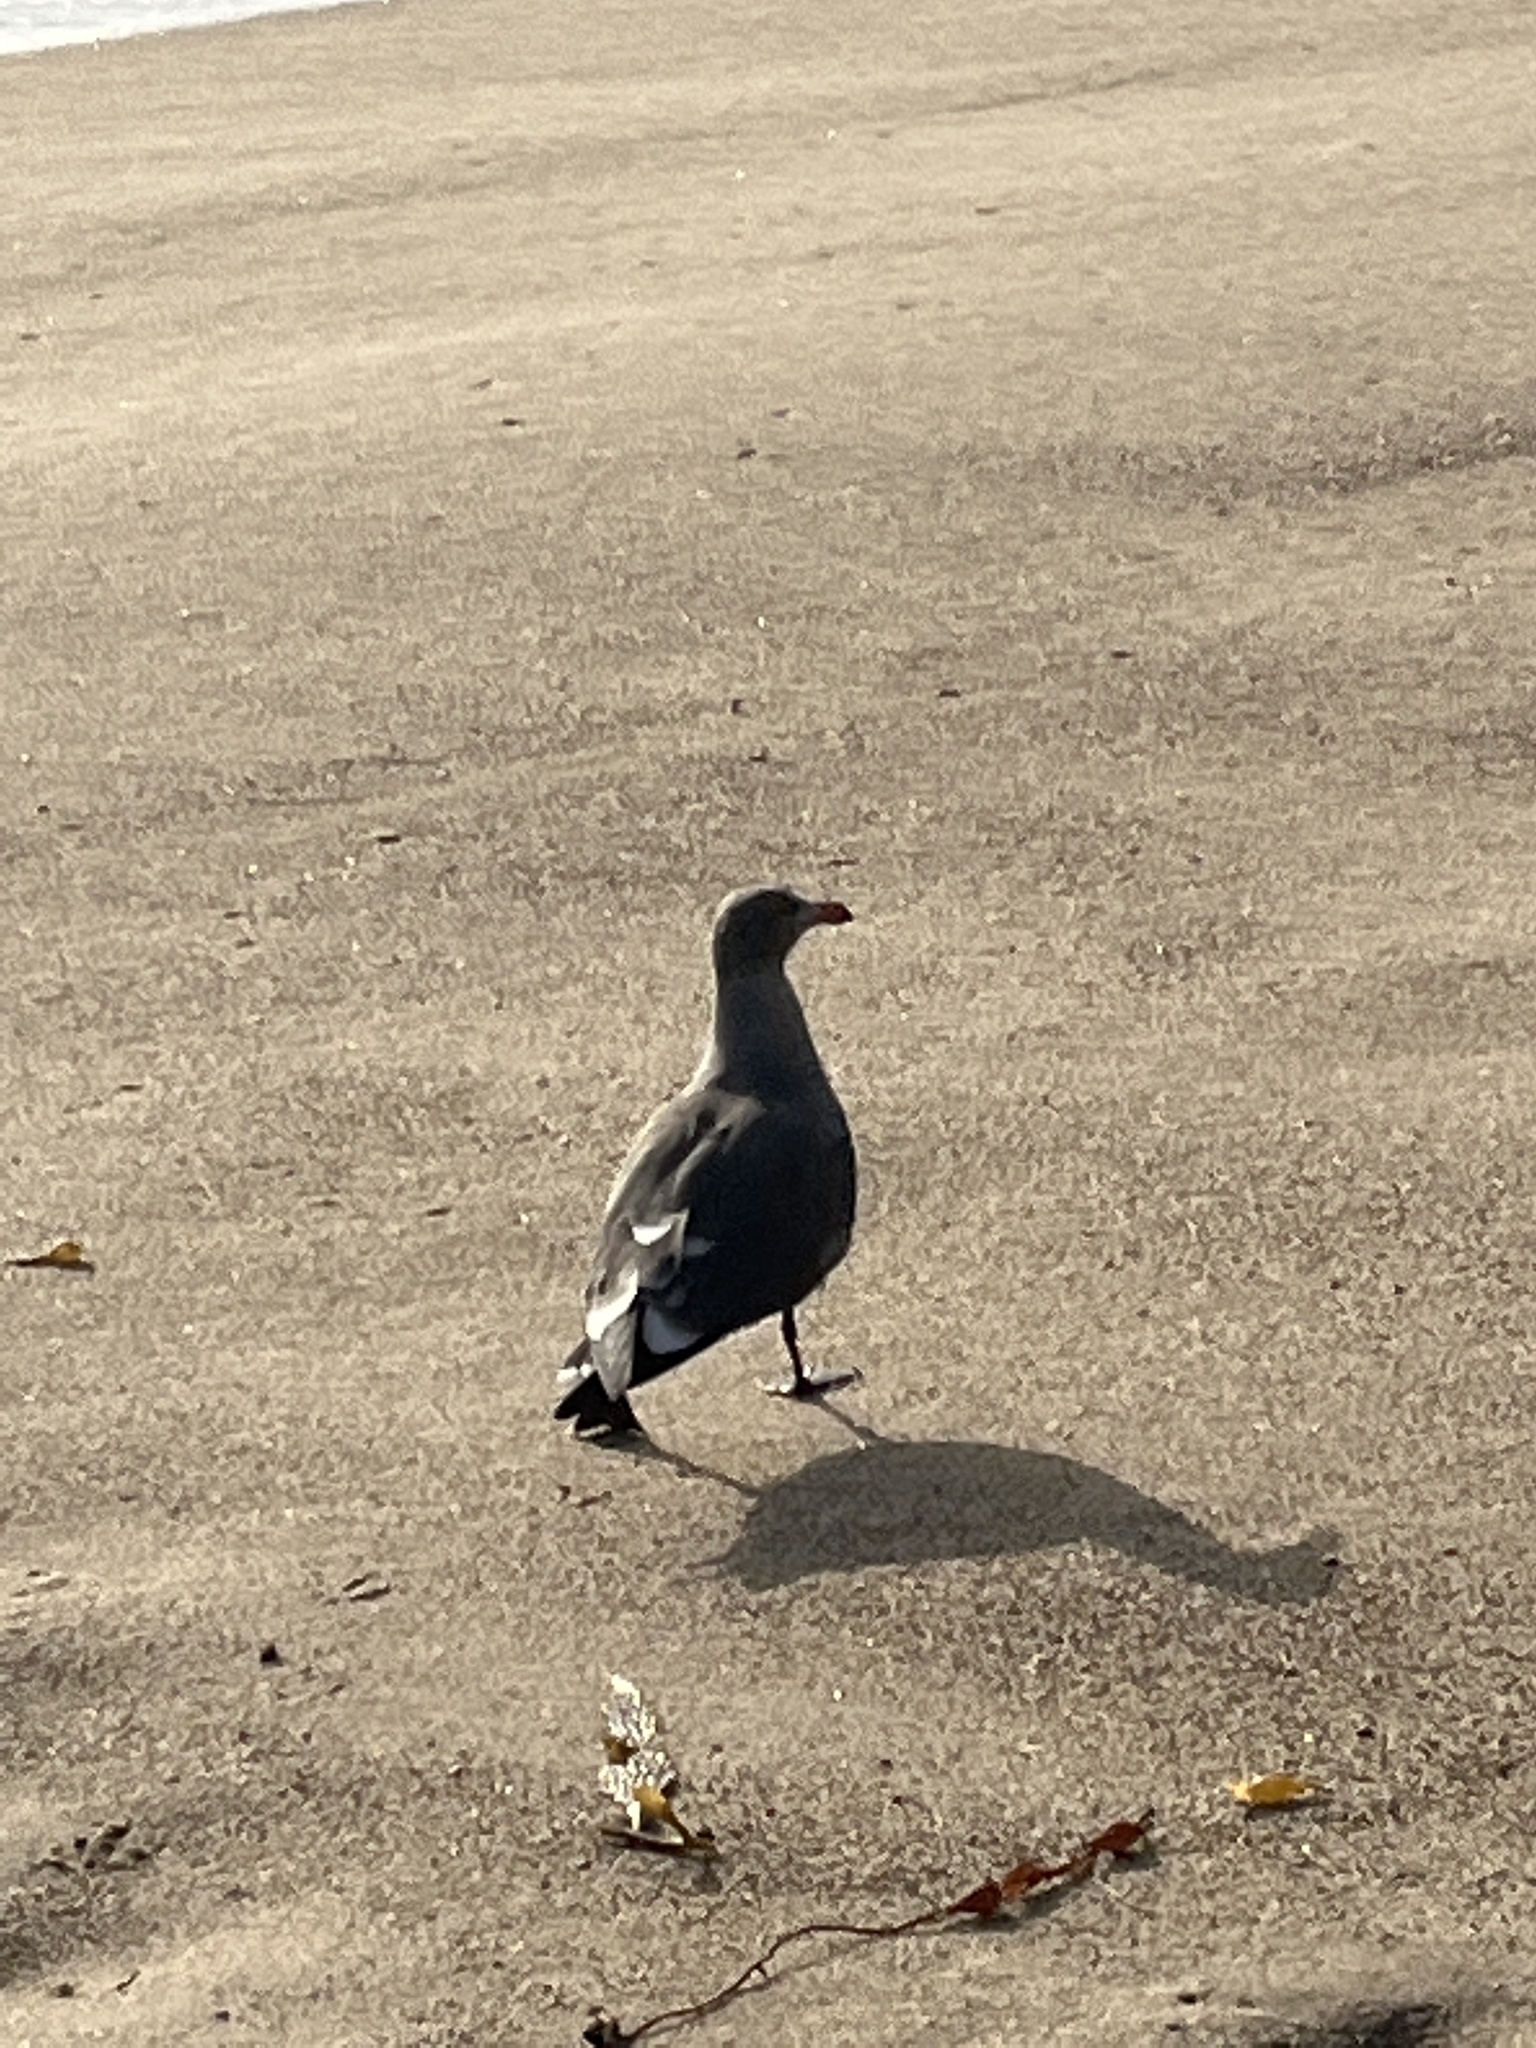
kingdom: Animalia
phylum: Chordata
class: Aves
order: Charadriiformes
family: Laridae
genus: Larus
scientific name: Larus heermanni
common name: Heermann's gull
